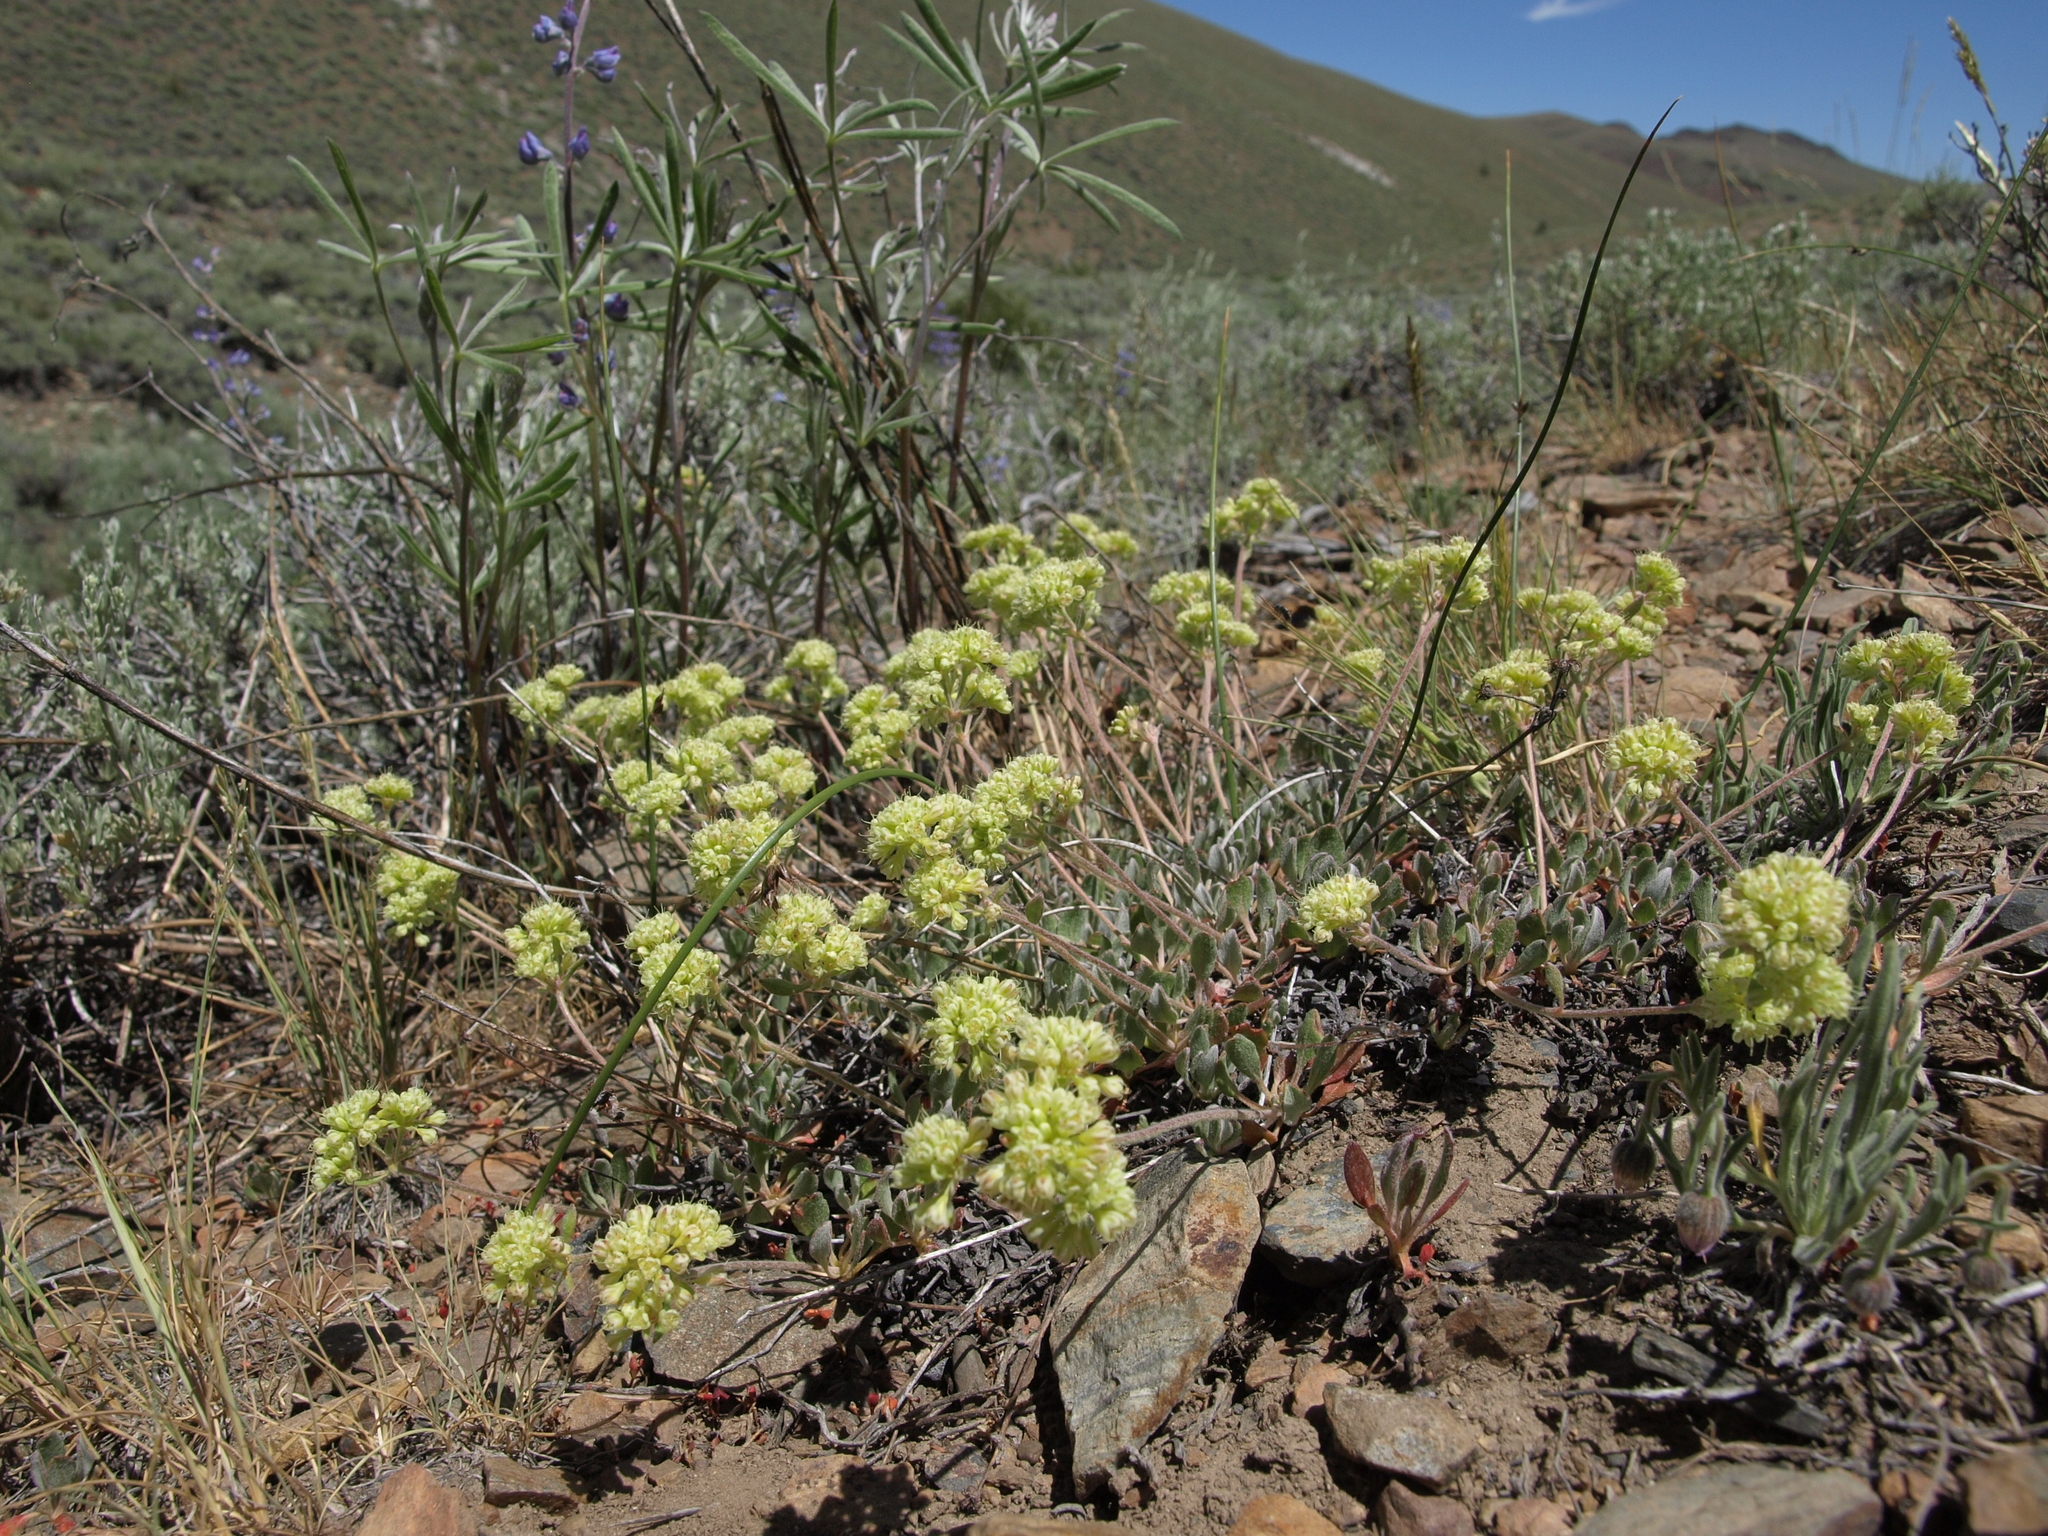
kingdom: Plantae
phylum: Tracheophyta
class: Magnoliopsida
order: Caryophyllales
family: Polygonaceae
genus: Eriogonum
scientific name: Eriogonum umbellatum
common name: Sulfur-buckwheat
